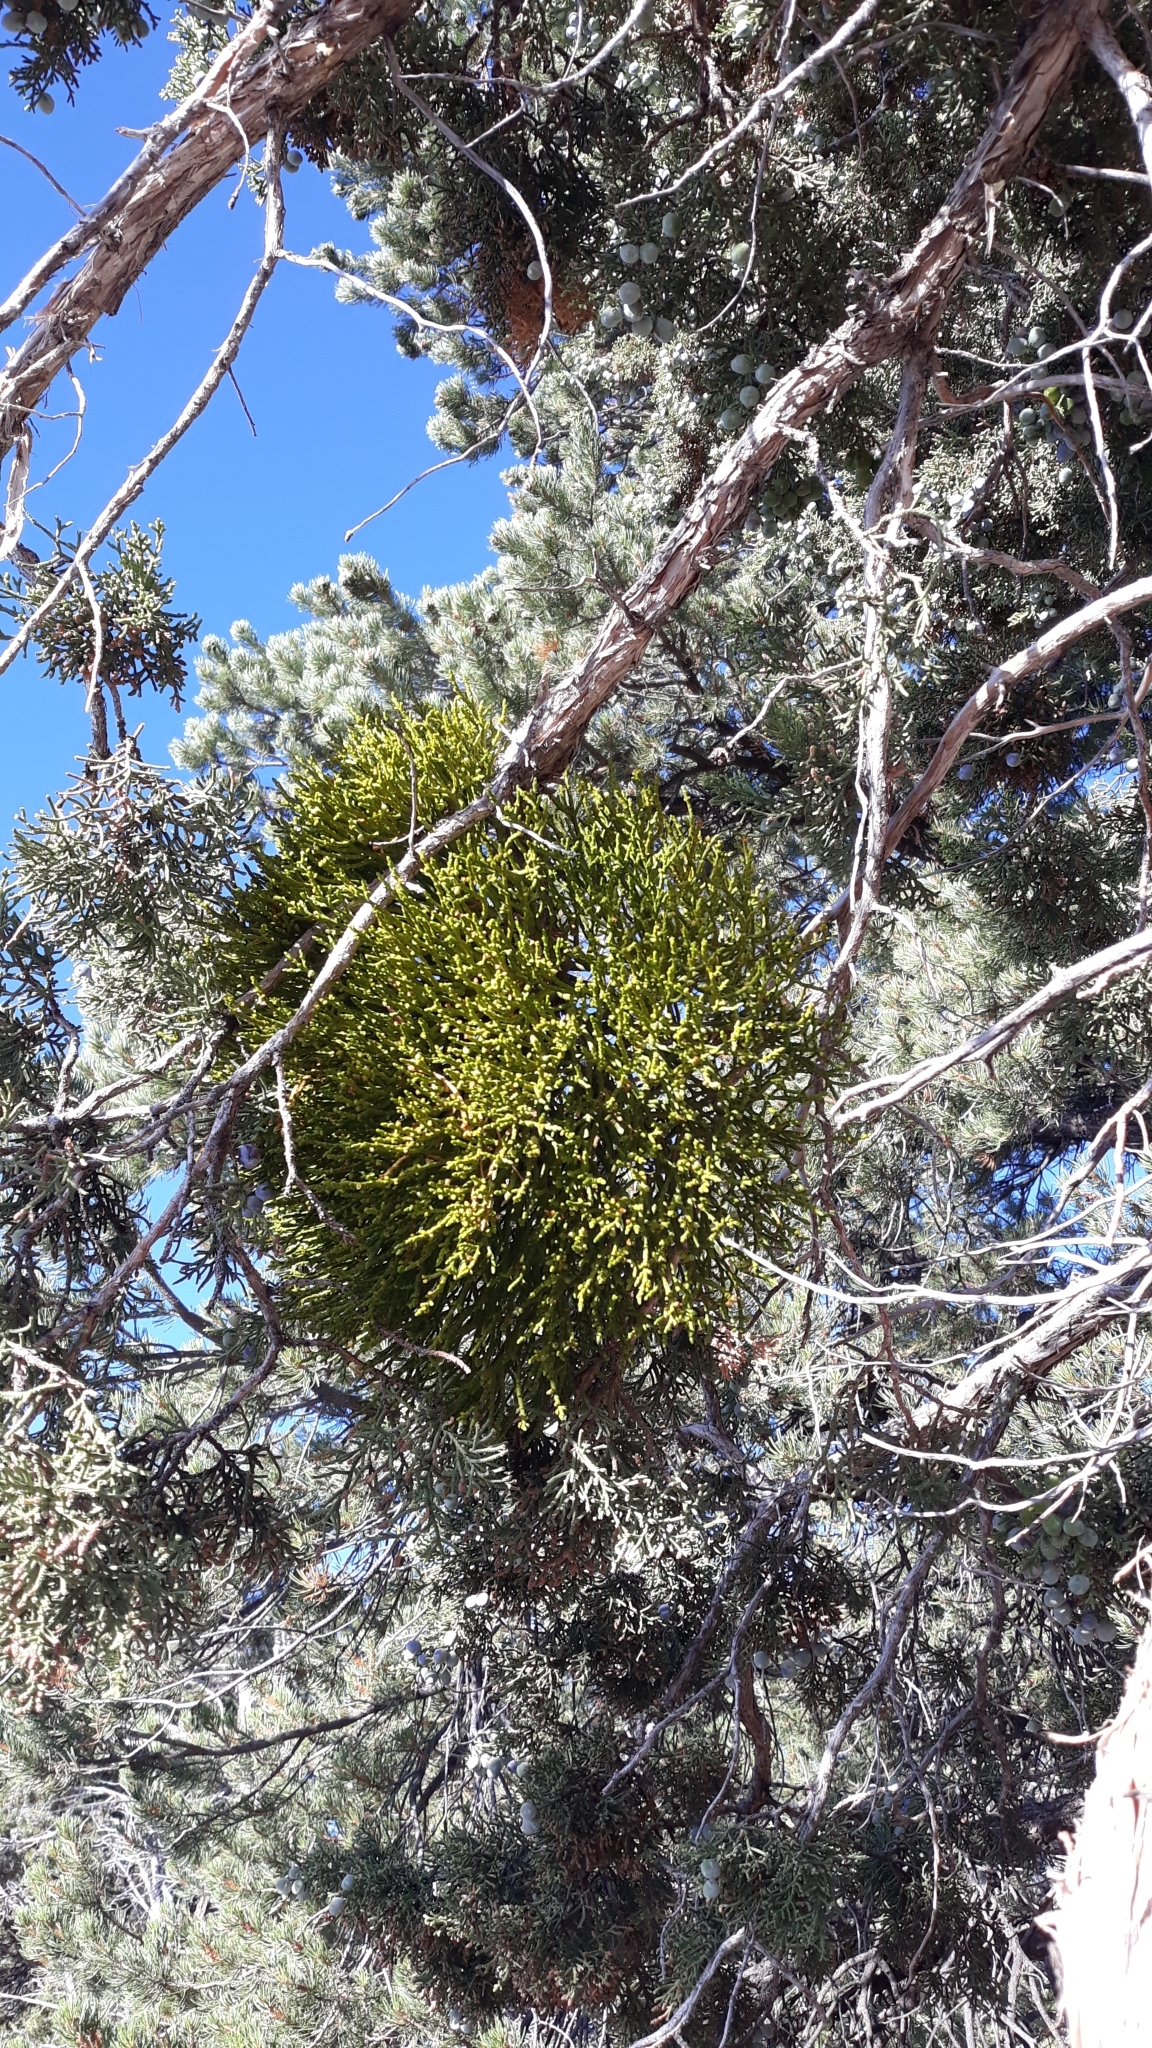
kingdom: Plantae
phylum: Tracheophyta
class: Magnoliopsida
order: Santalales
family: Viscaceae
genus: Phoradendron
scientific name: Phoradendron juniperinum
